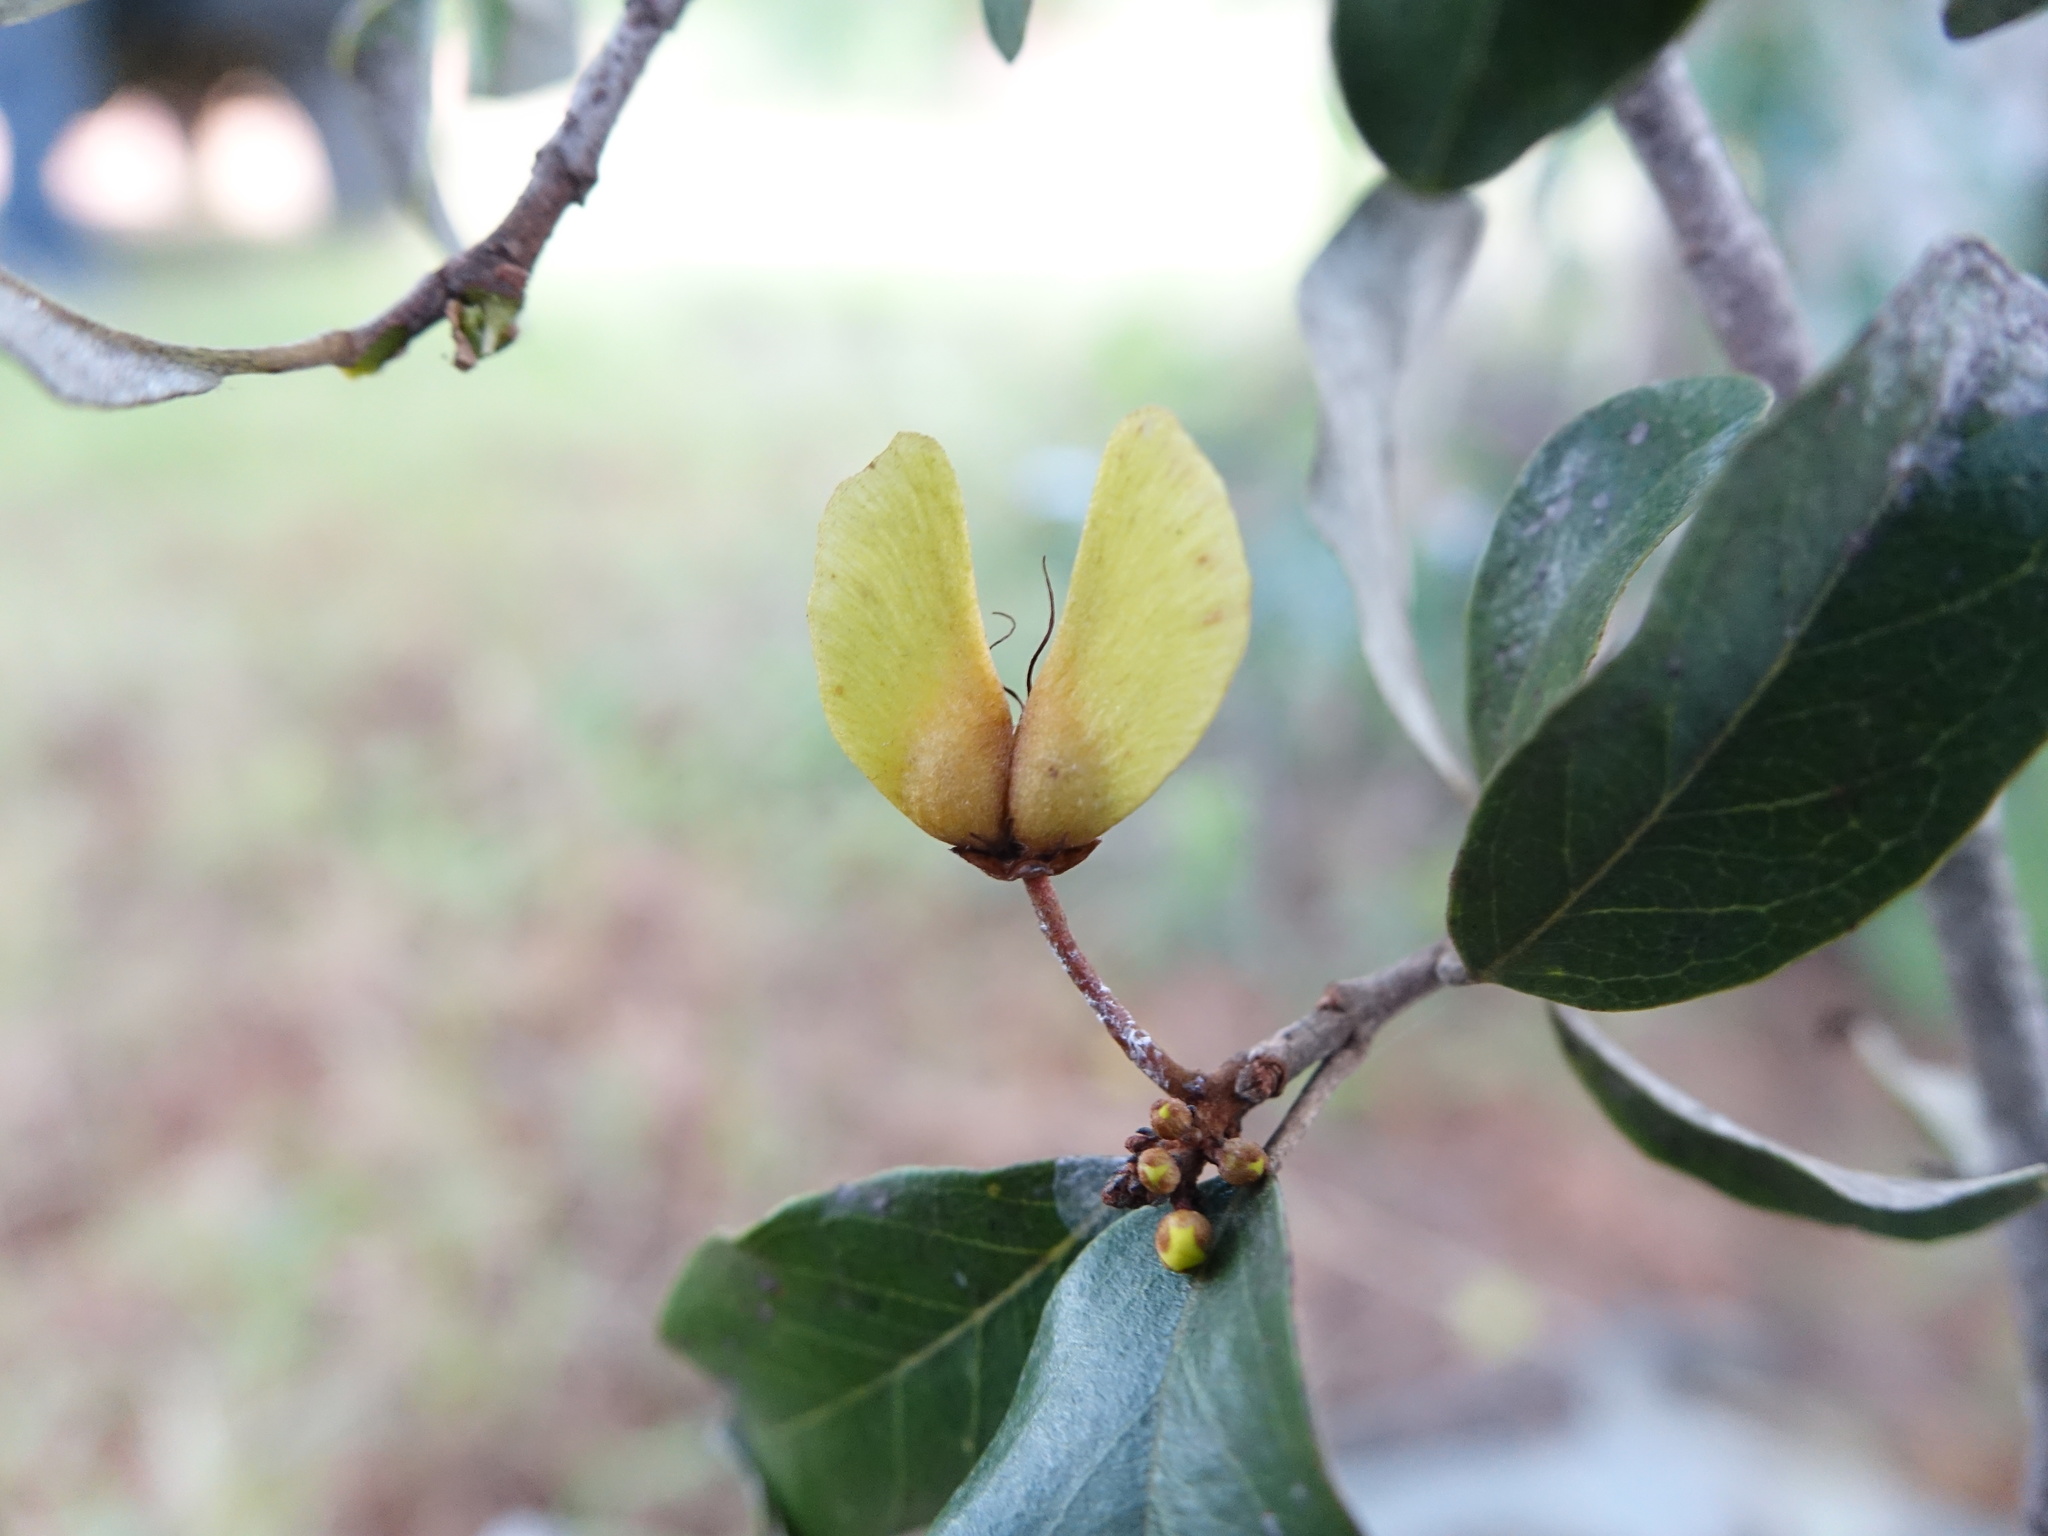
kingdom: Plantae
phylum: Tracheophyta
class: Magnoliopsida
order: Malpighiales
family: Malpighiaceae
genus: Acridocarpus
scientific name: Acridocarpus excelsus
